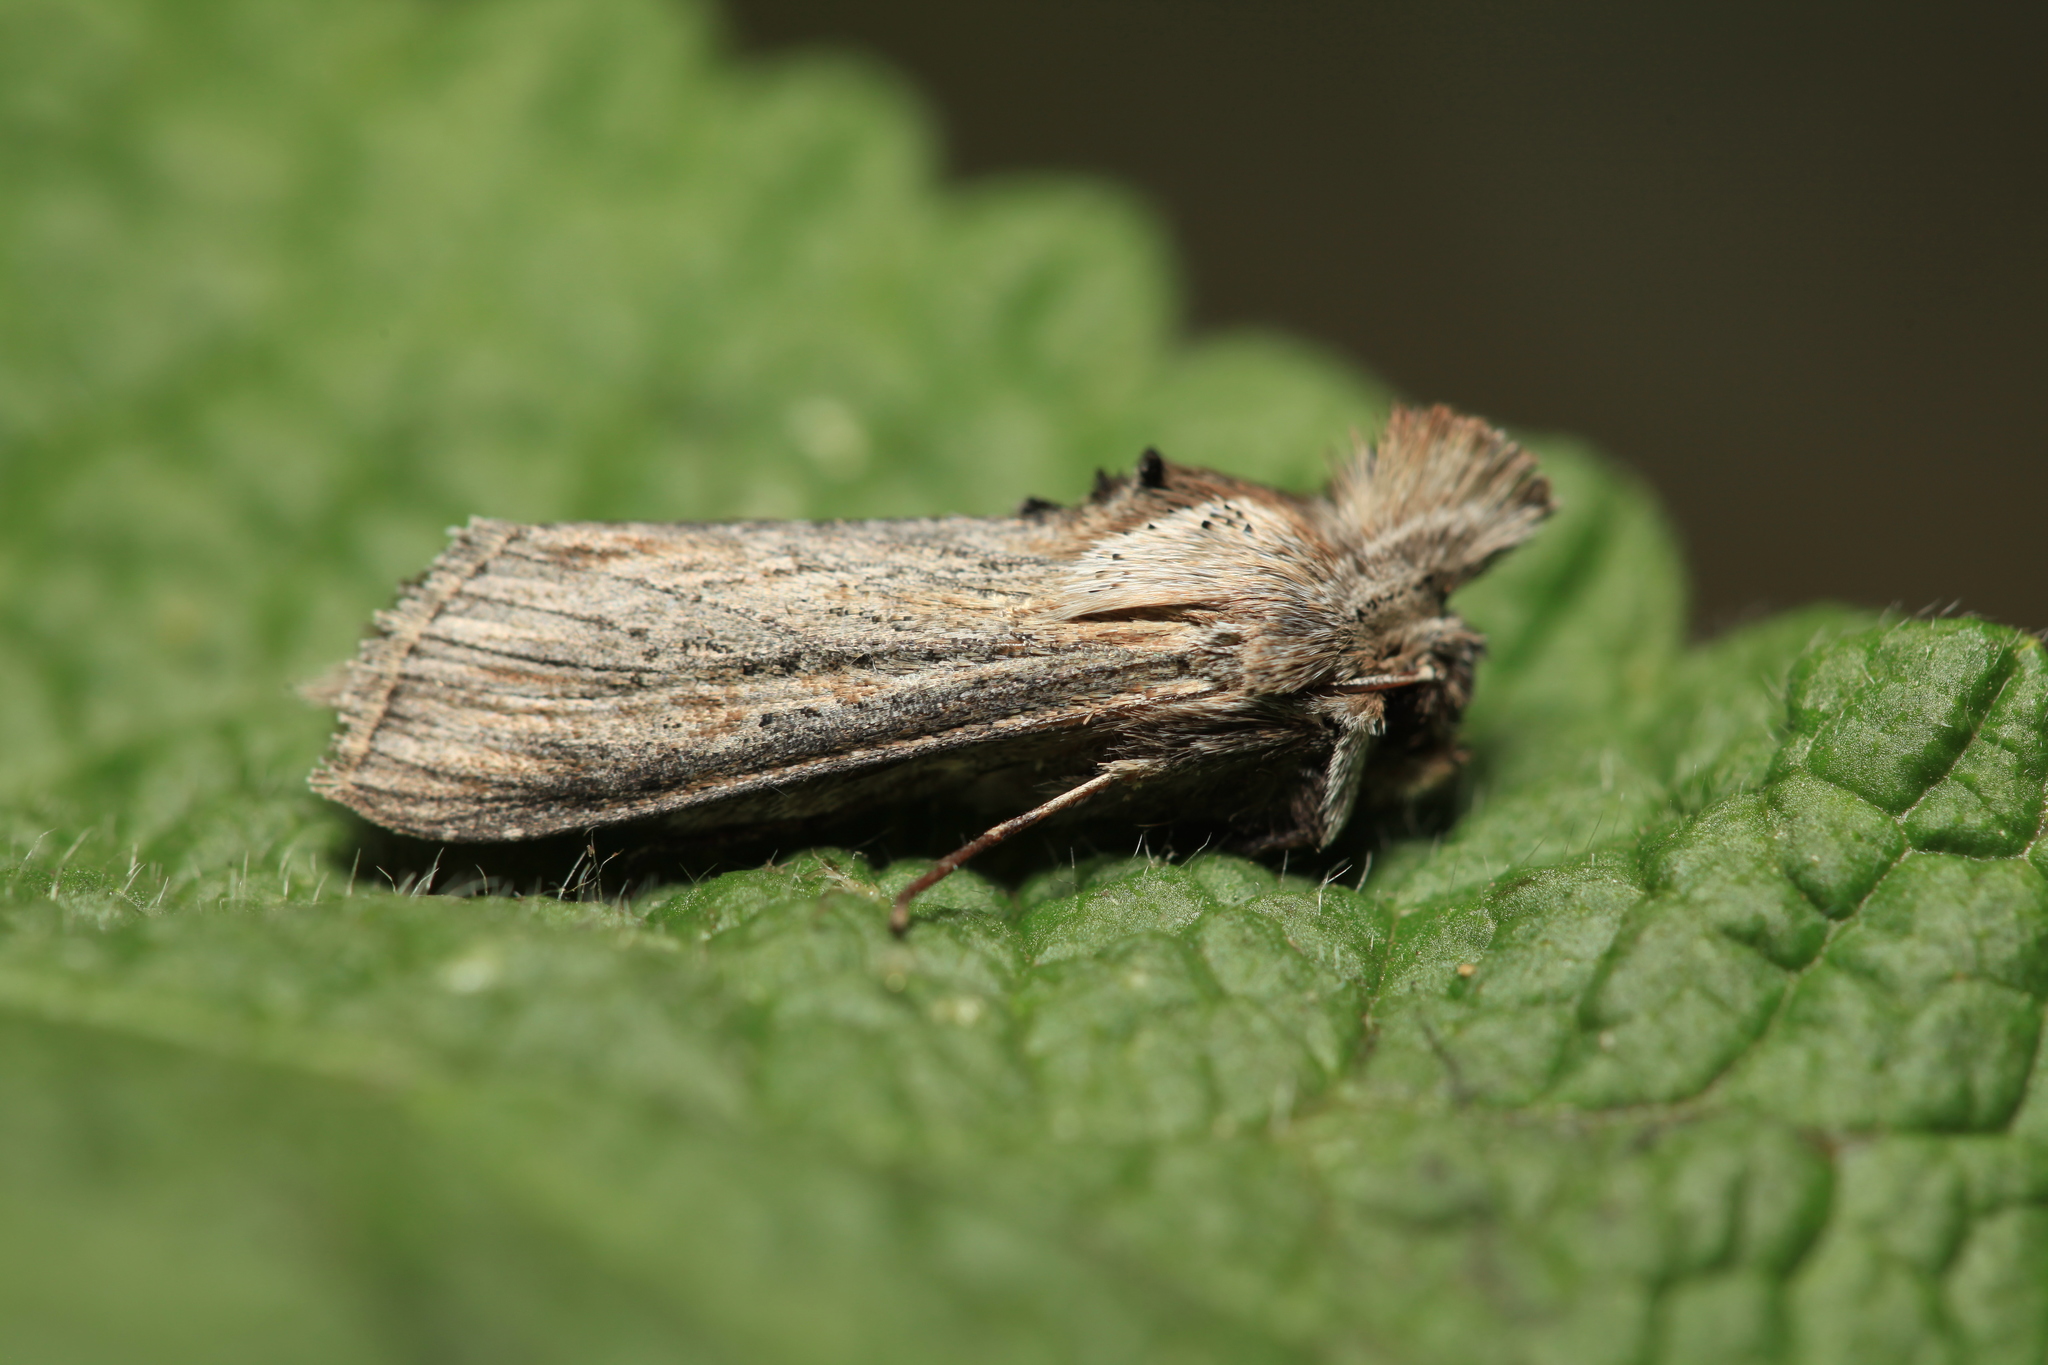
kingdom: Animalia
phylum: Arthropoda
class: Insecta
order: Lepidoptera
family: Noctuidae
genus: Cucullia
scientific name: Cucullia mixta
